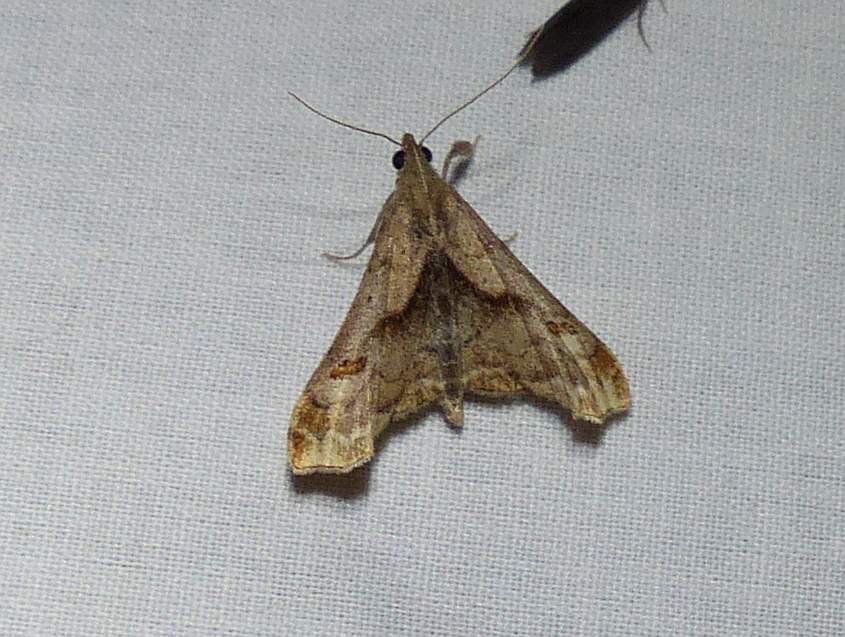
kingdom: Animalia
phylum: Arthropoda
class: Insecta
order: Lepidoptera
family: Erebidae
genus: Palthis
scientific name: Palthis angulalis
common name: Dark-spotted palthis moth
